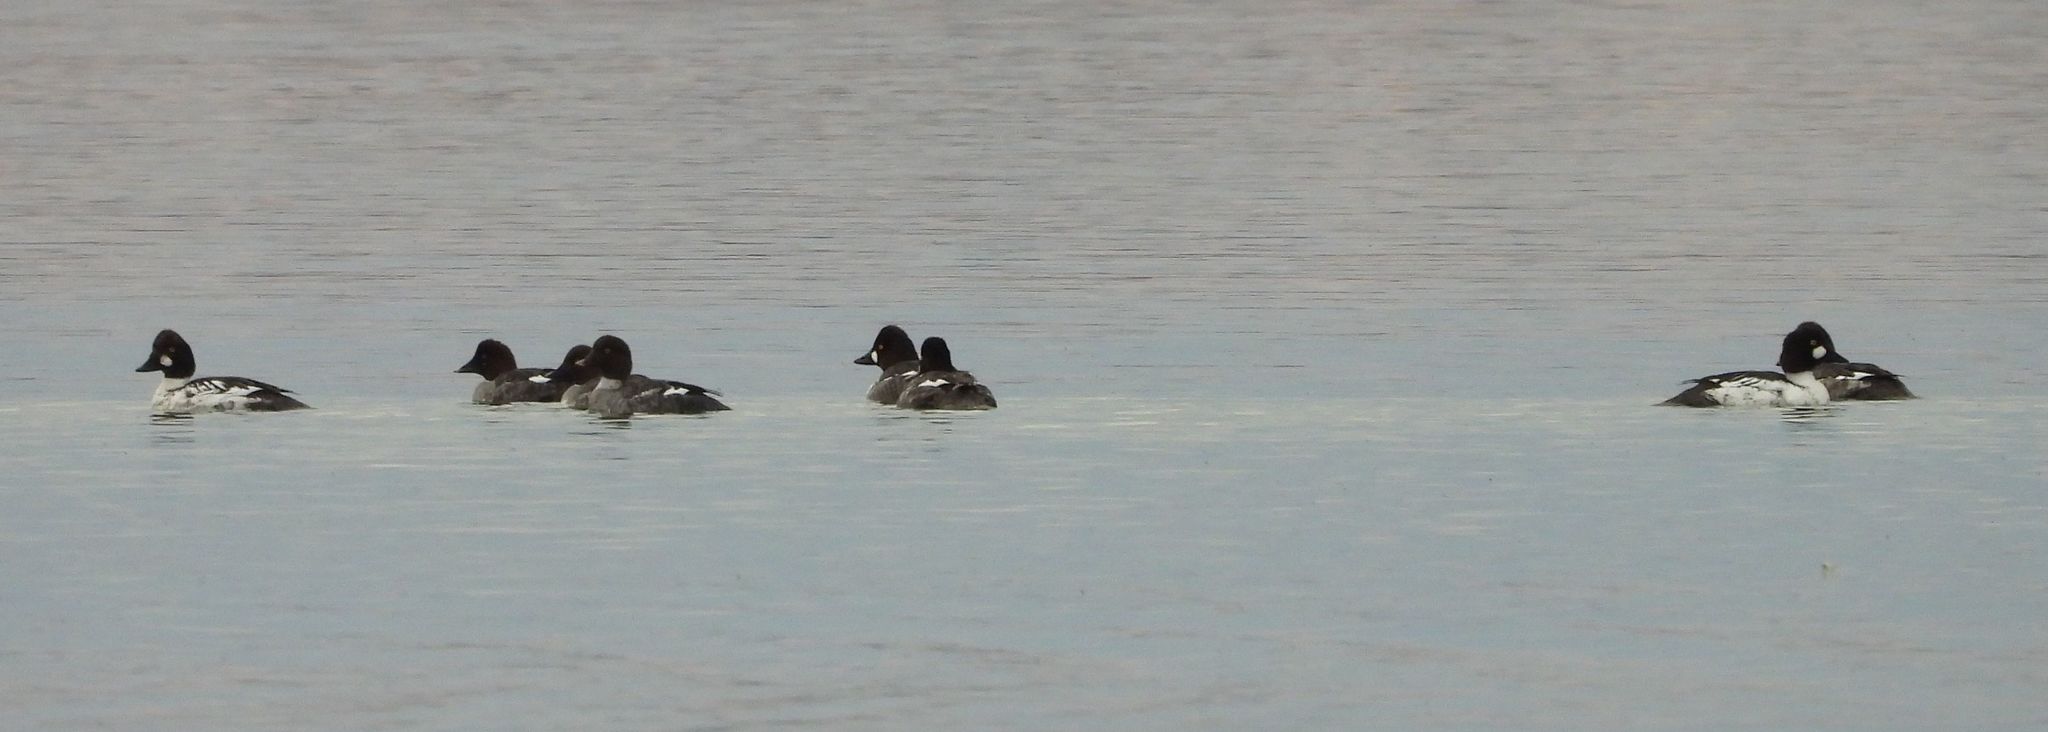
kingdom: Animalia
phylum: Chordata
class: Aves
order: Anseriformes
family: Anatidae
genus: Bucephala
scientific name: Bucephala clangula
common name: Common goldeneye
